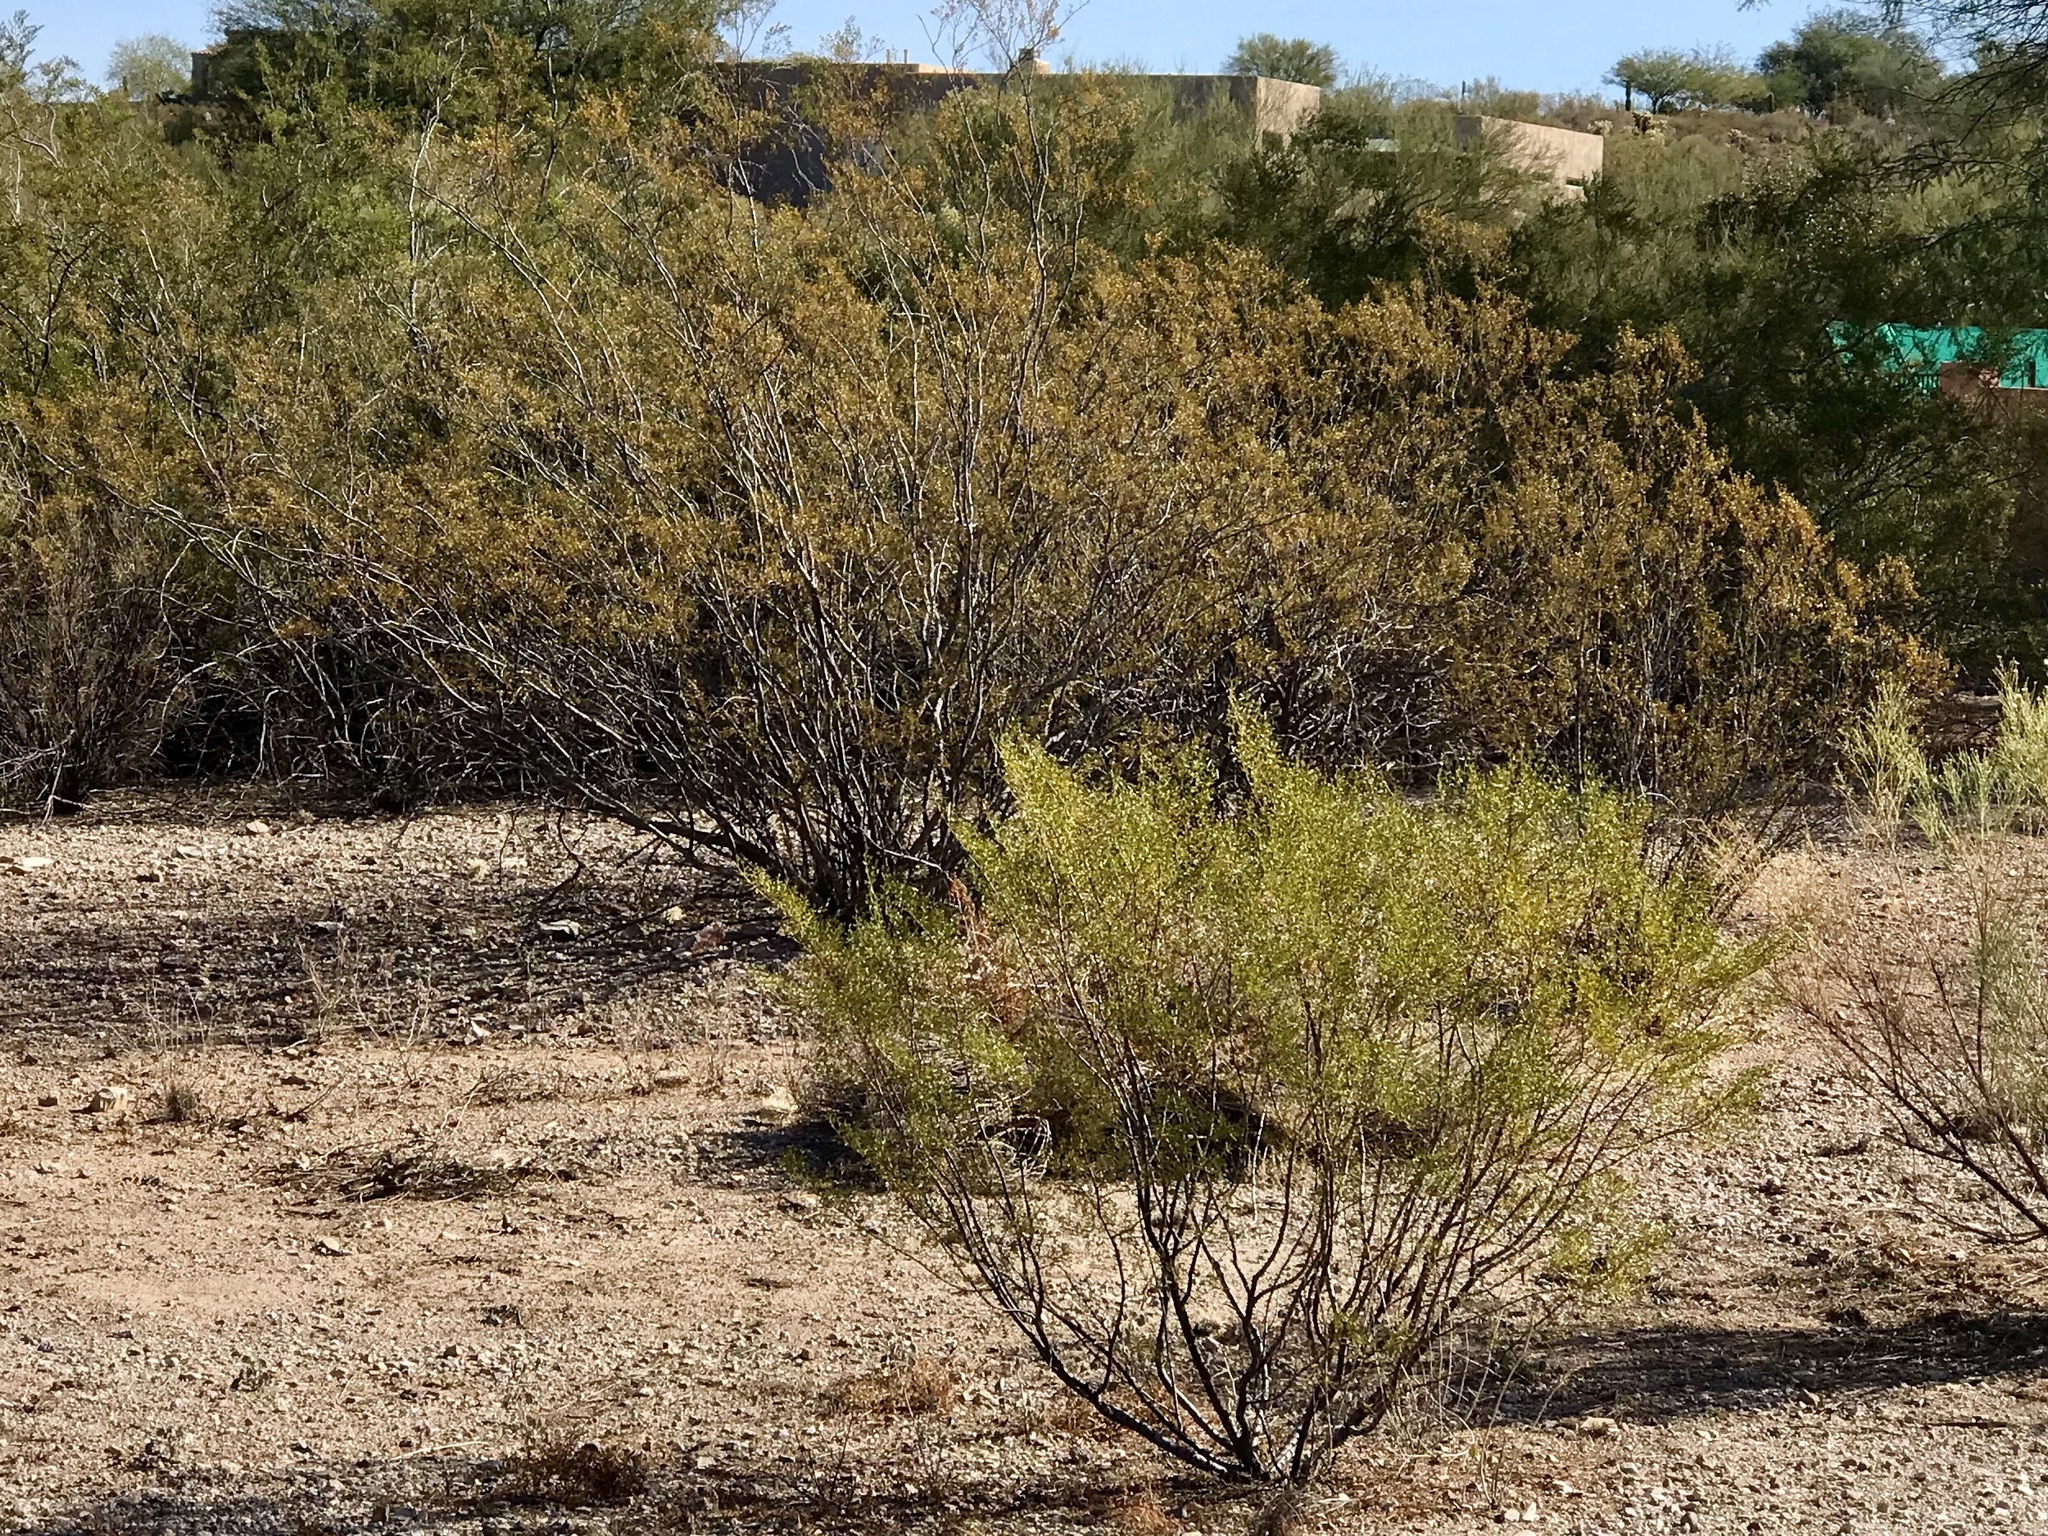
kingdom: Plantae
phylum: Tracheophyta
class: Magnoliopsida
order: Zygophyllales
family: Zygophyllaceae
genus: Larrea
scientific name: Larrea tridentata
